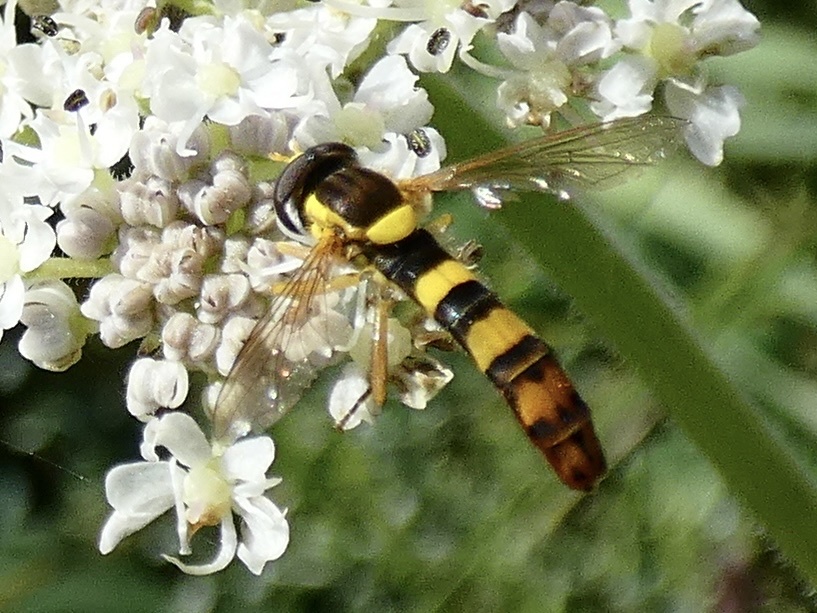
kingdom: Animalia
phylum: Arthropoda
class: Insecta
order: Diptera
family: Syrphidae
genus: Sphaerophoria
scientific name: Sphaerophoria scripta
